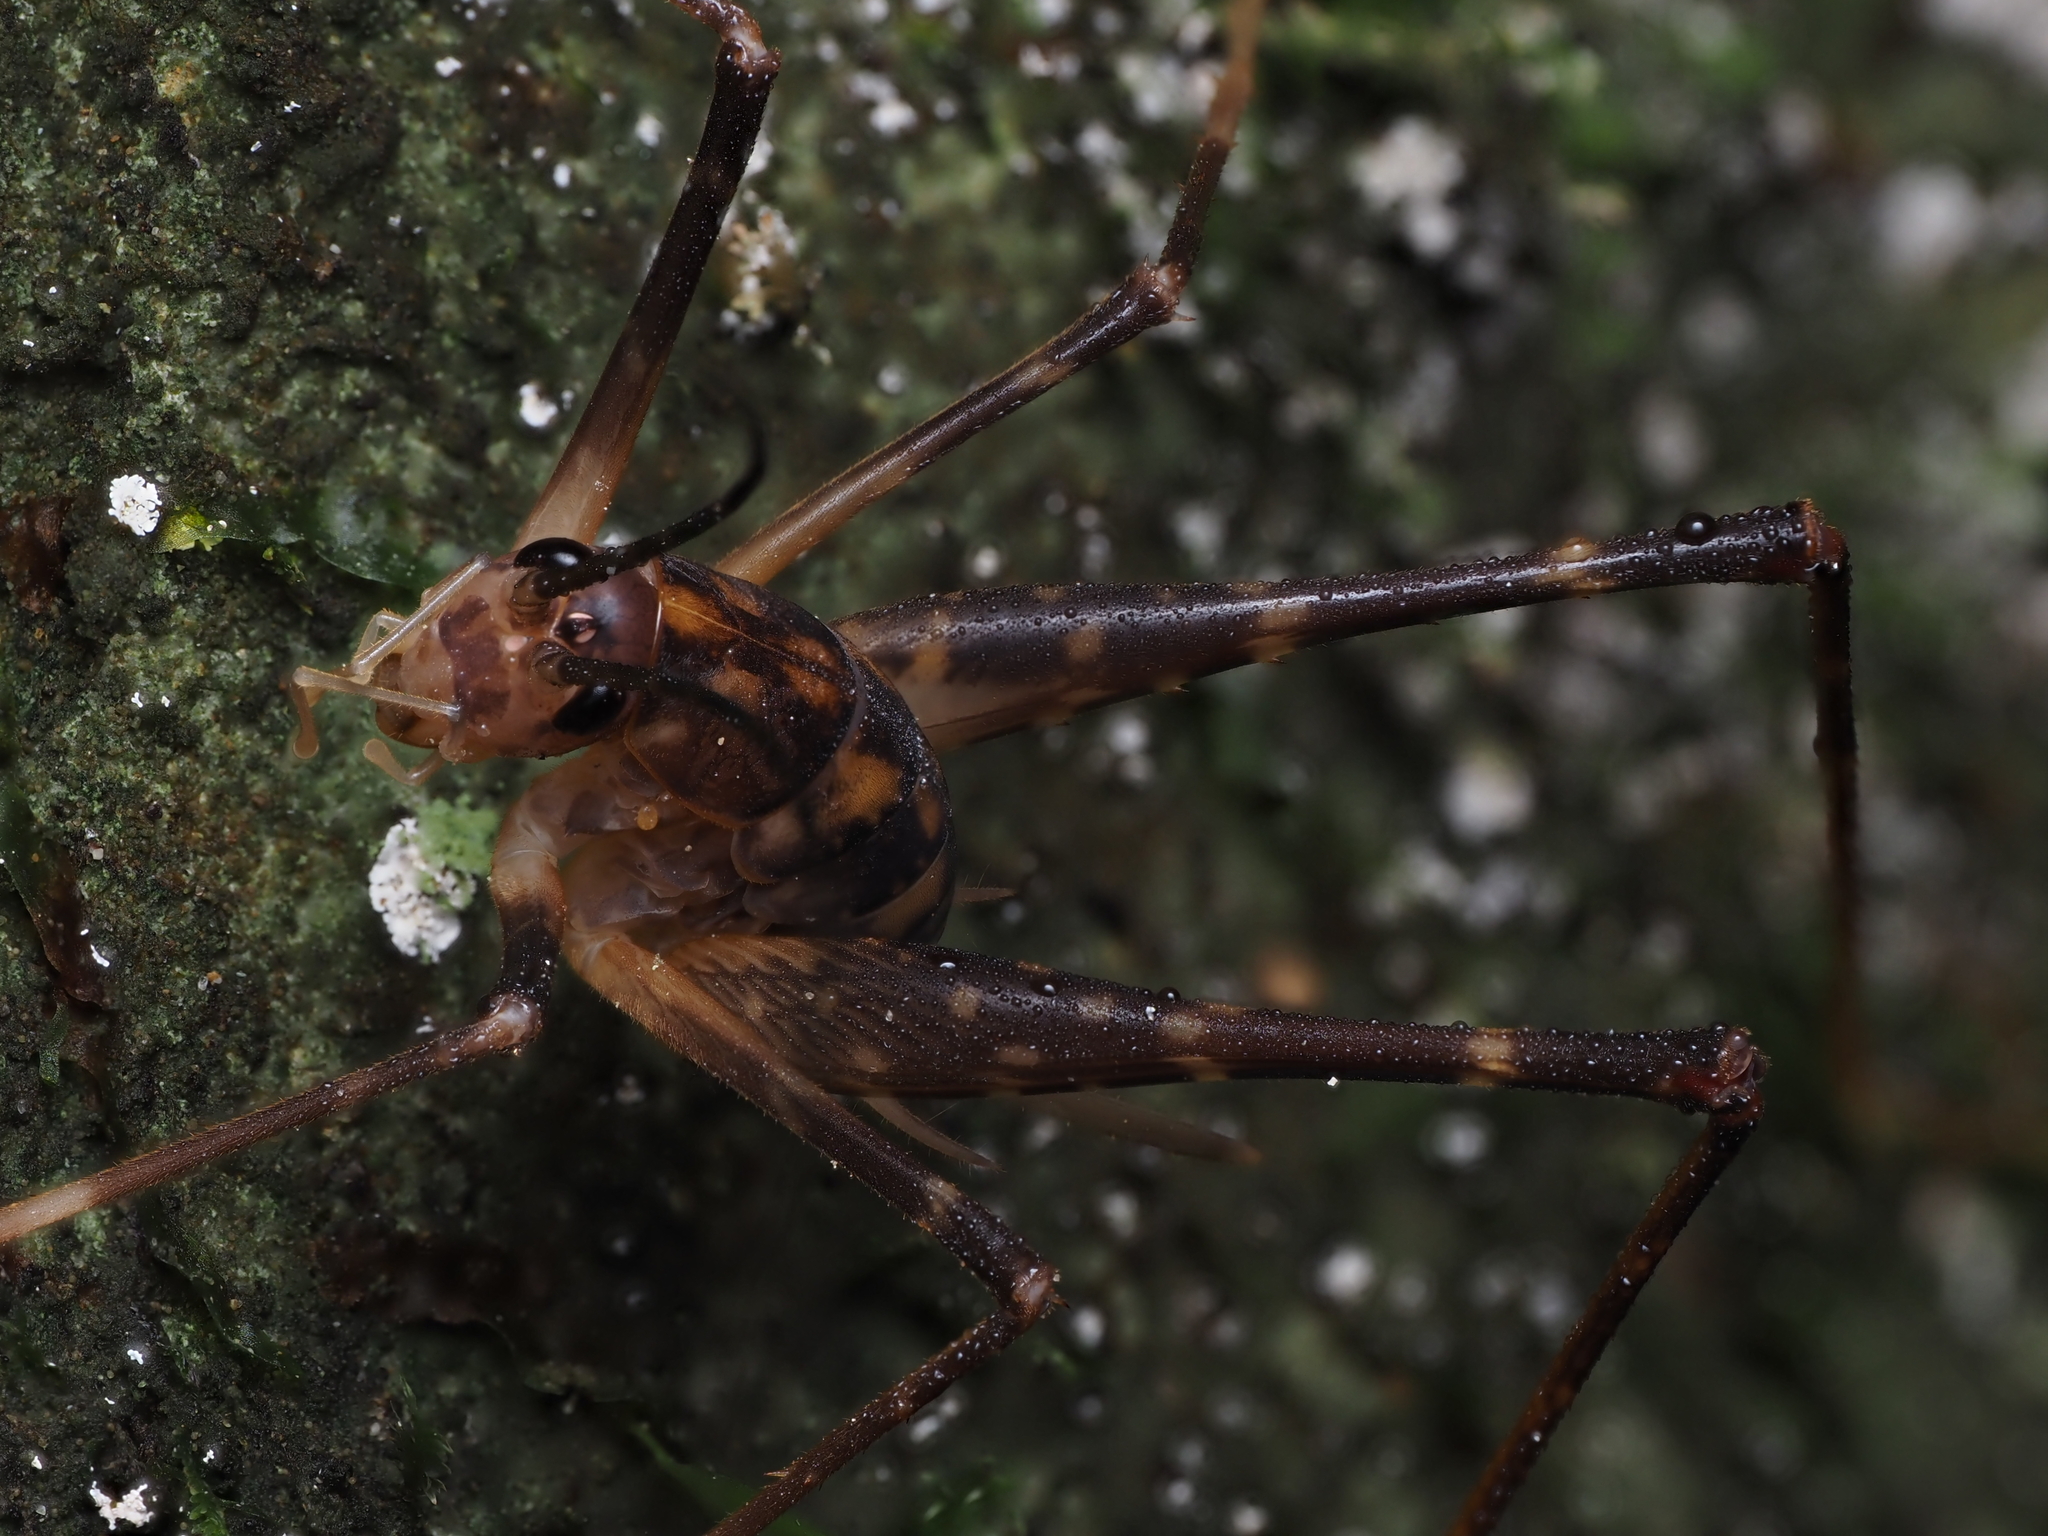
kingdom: Animalia
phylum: Arthropoda
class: Insecta
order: Orthoptera
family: Rhaphidophoridae
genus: Pachyrhamma
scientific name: Pachyrhamma waitomoensis
